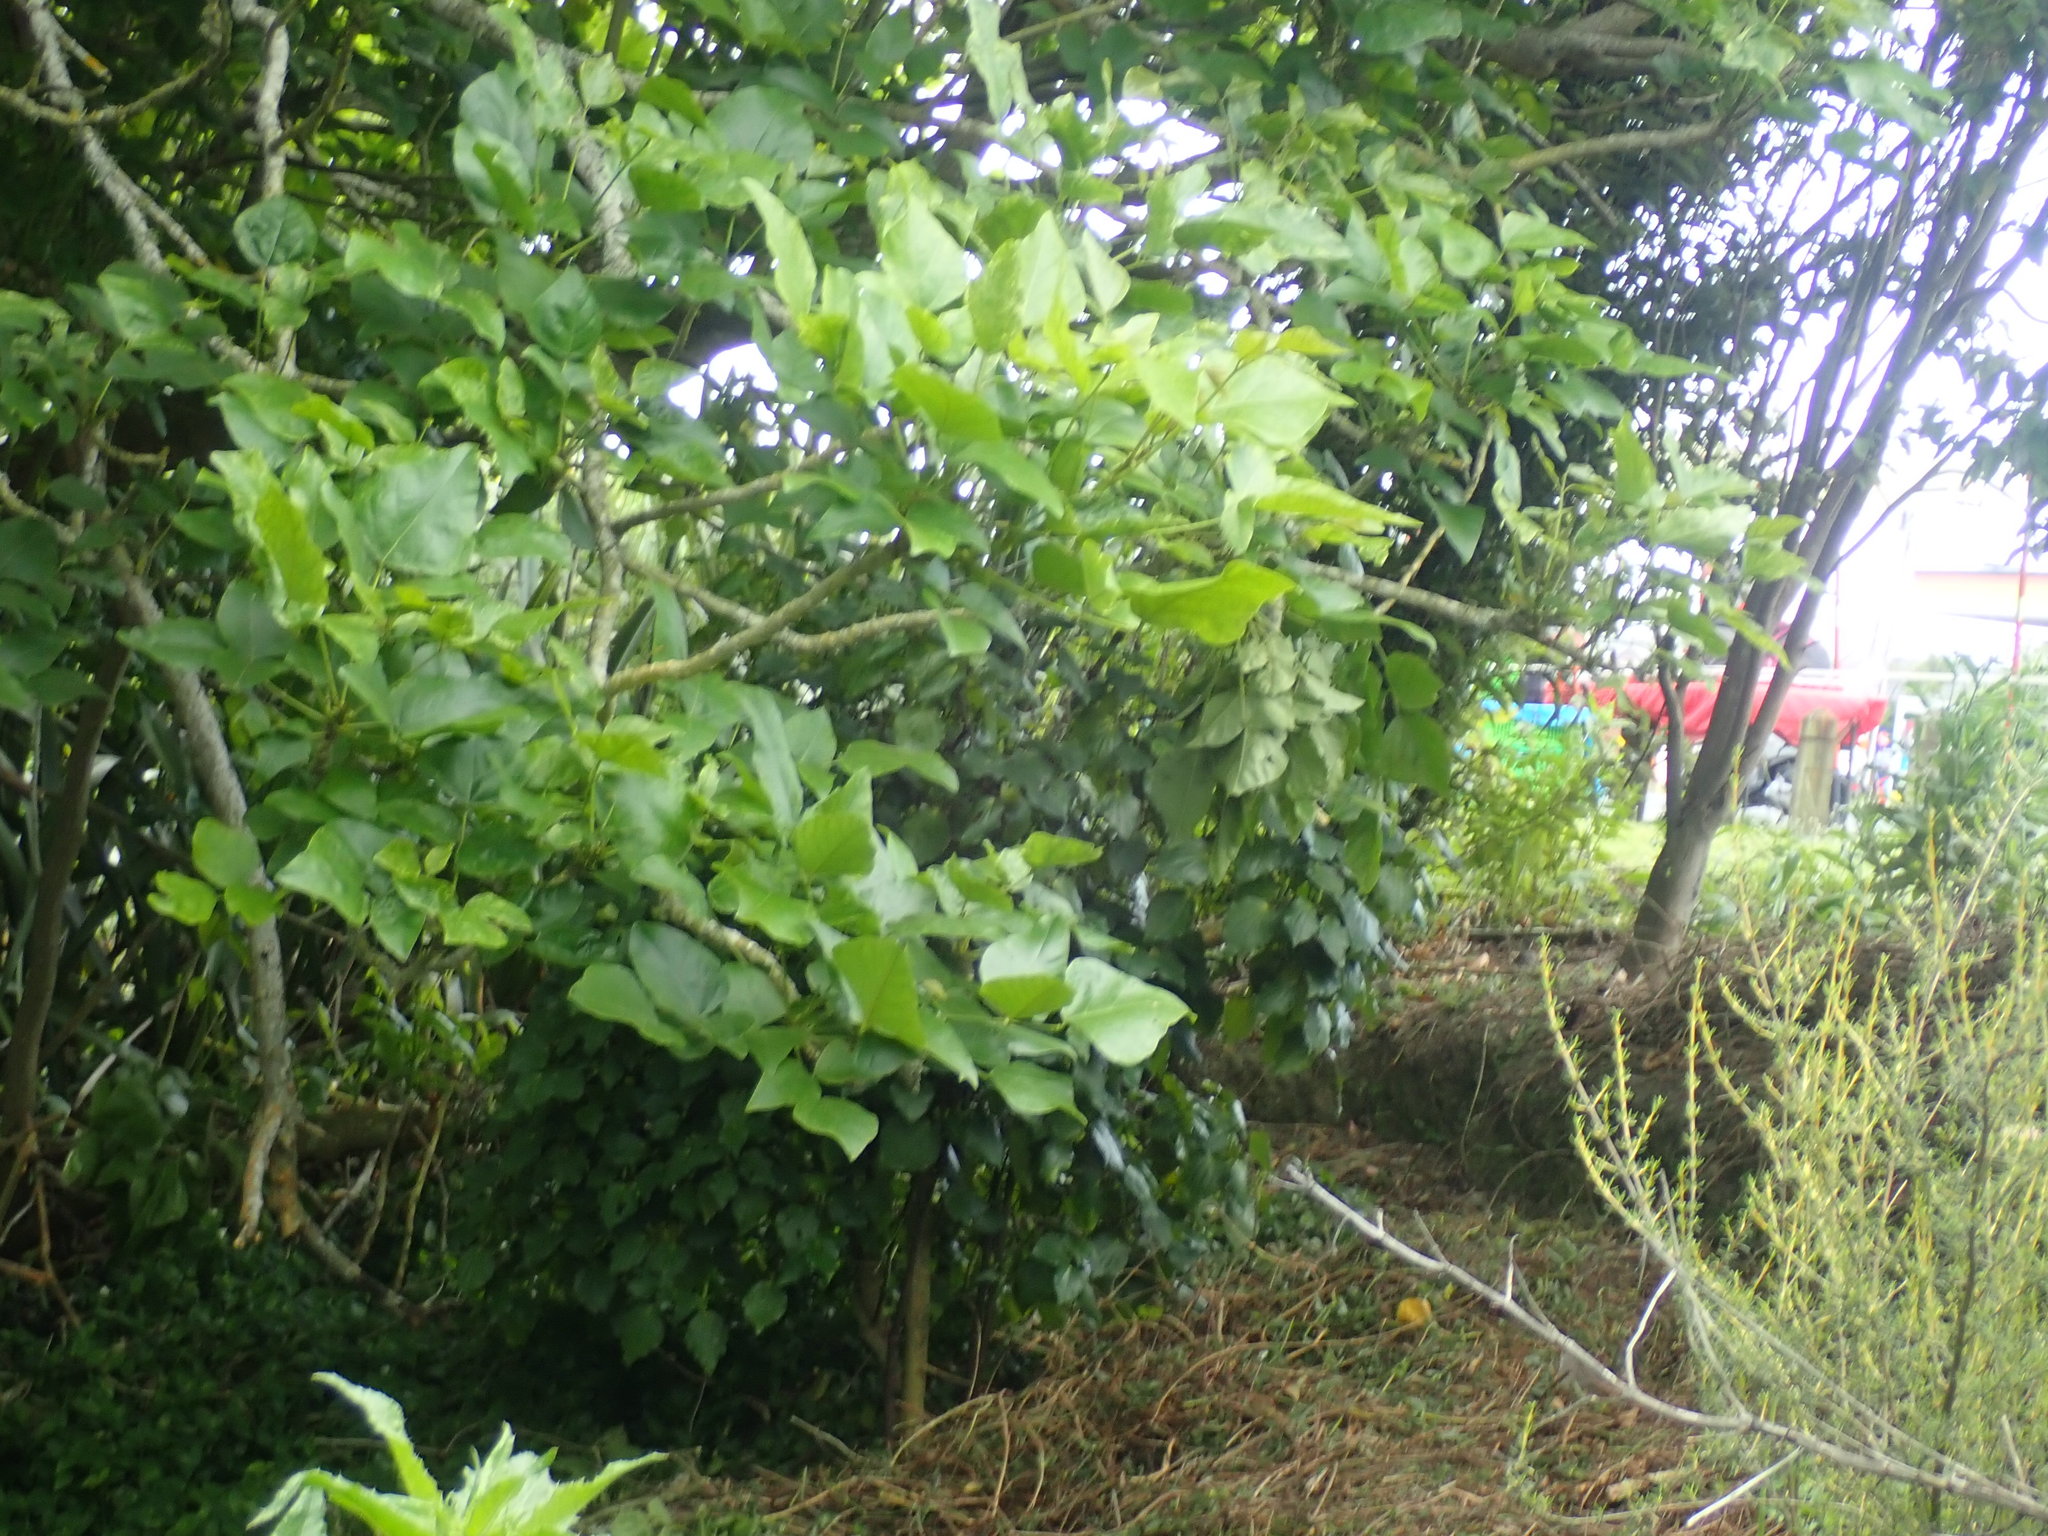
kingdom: Plantae
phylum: Tracheophyta
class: Magnoliopsida
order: Piperales
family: Piperaceae
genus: Macropiper
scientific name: Macropiper excelsum
